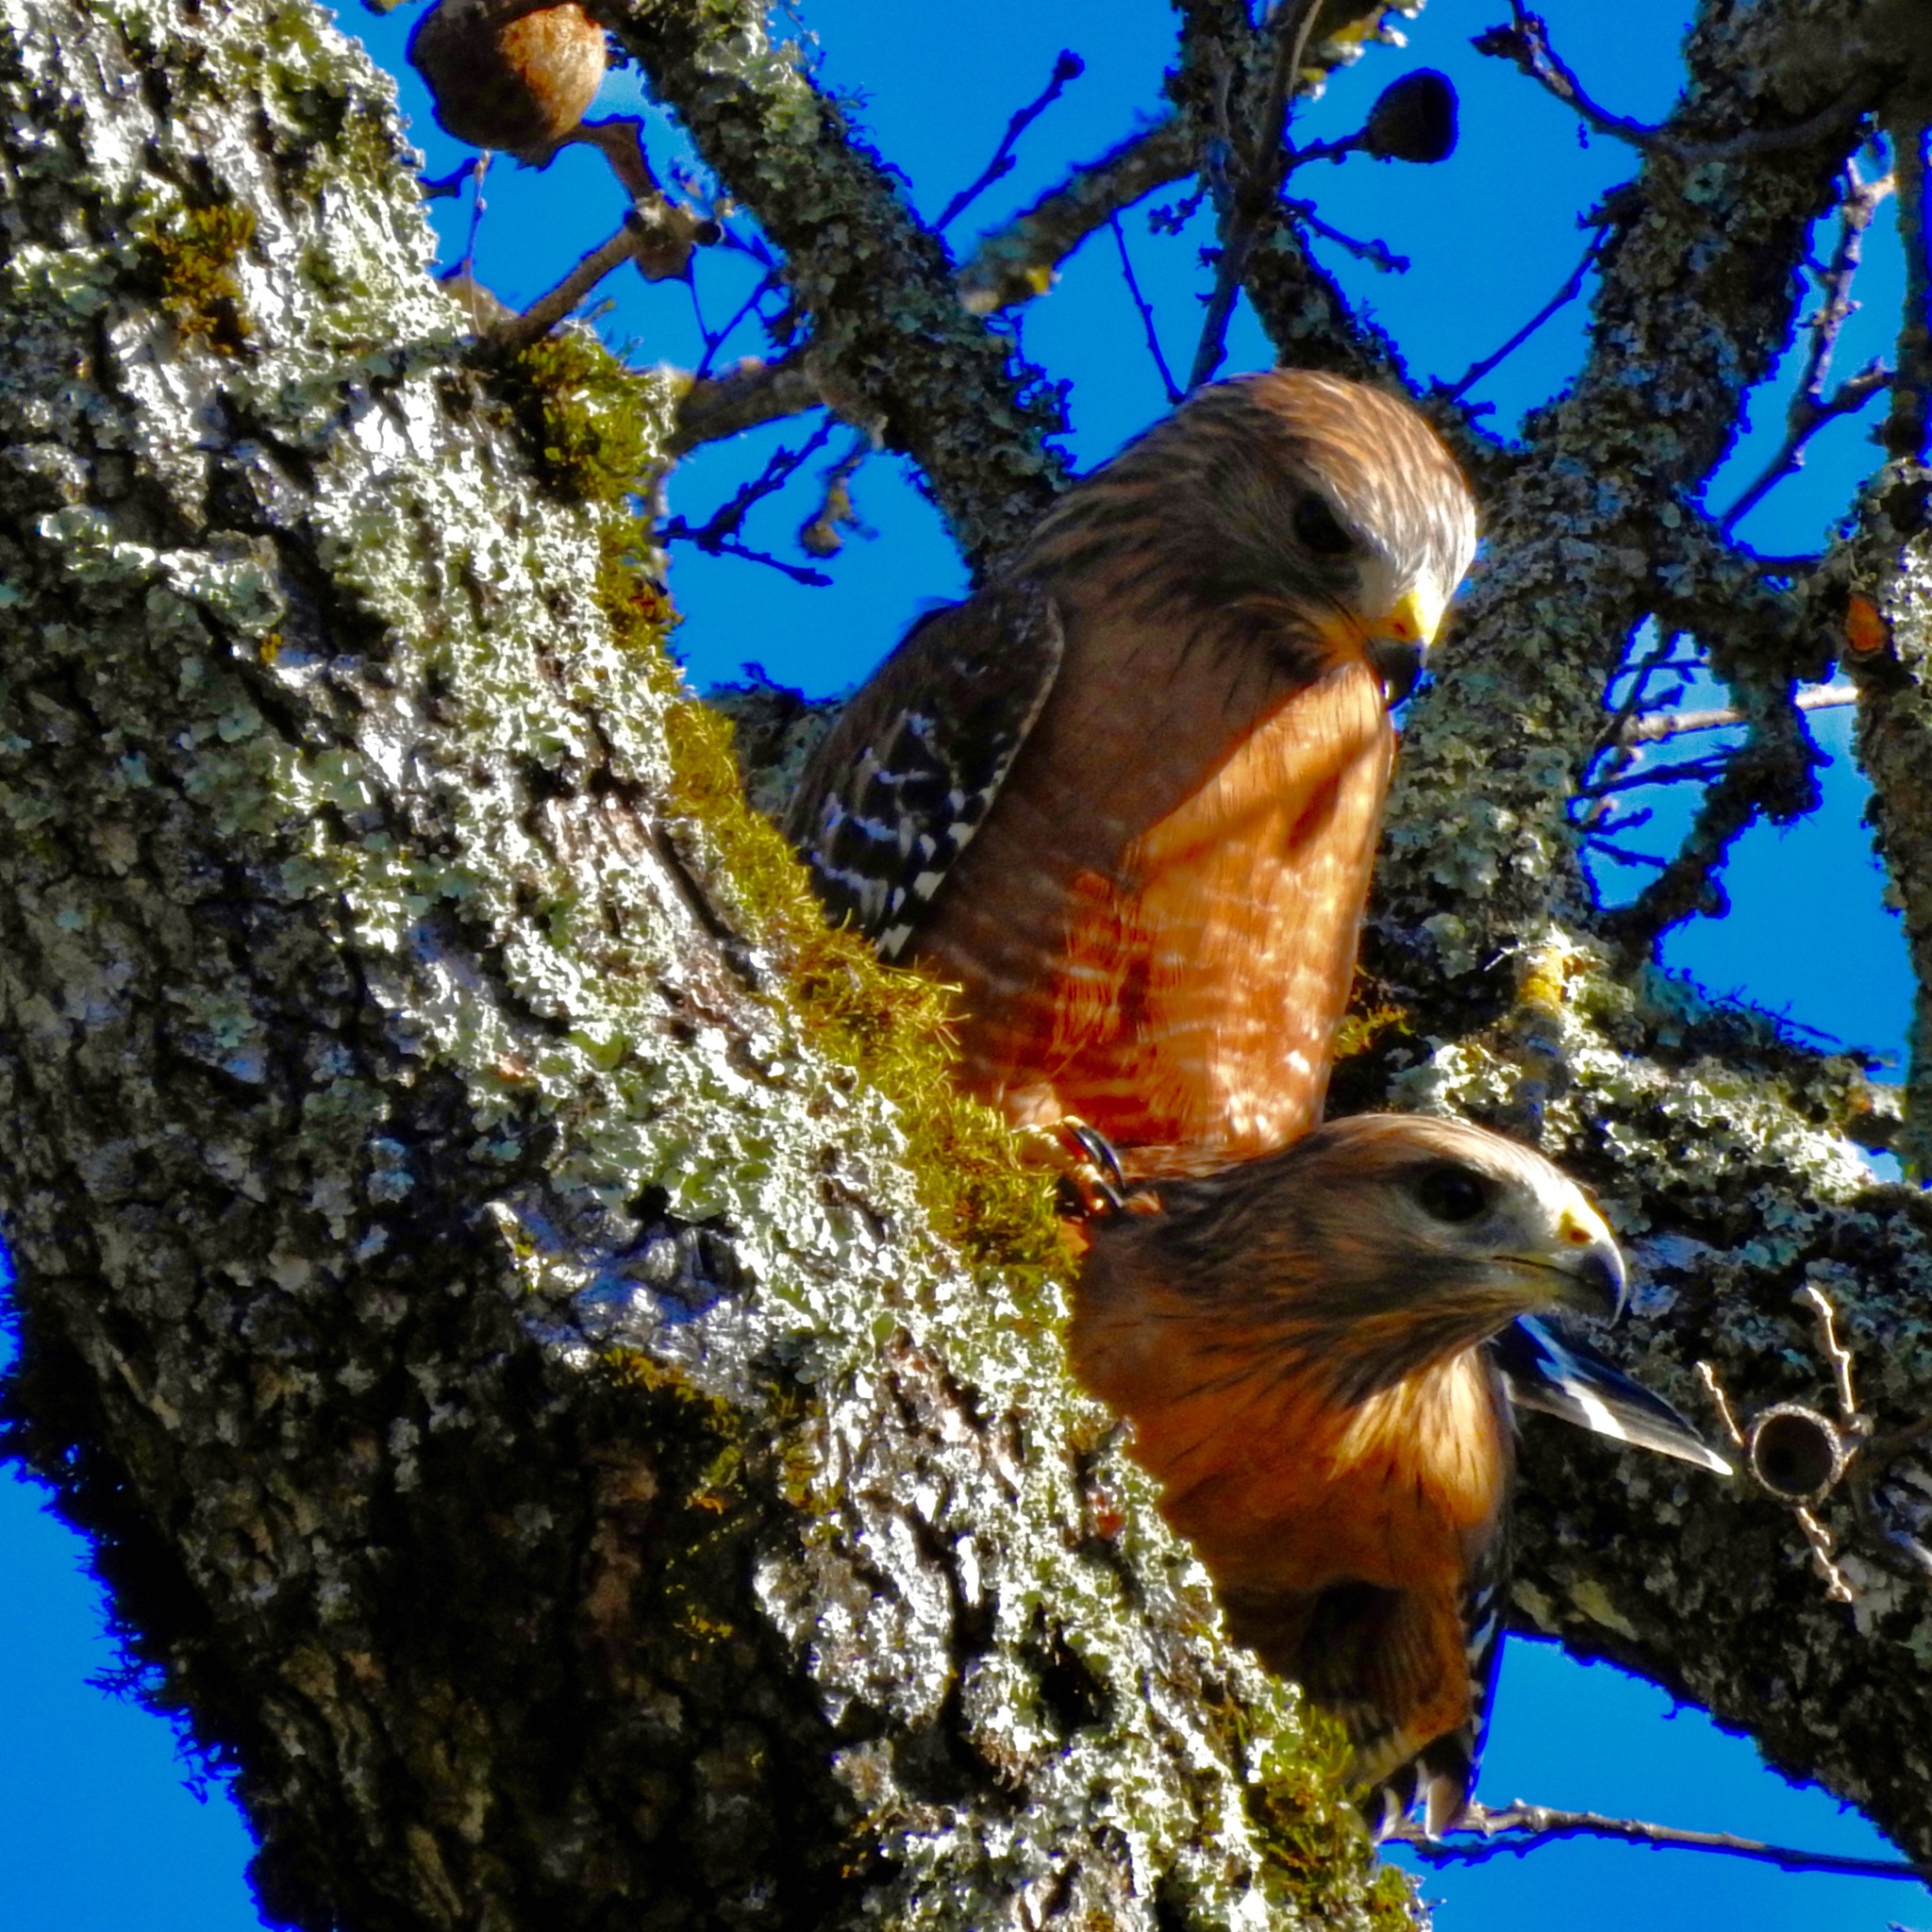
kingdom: Animalia
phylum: Chordata
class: Aves
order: Accipitriformes
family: Accipitridae
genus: Buteo
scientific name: Buteo lineatus
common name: Red-shouldered hawk
